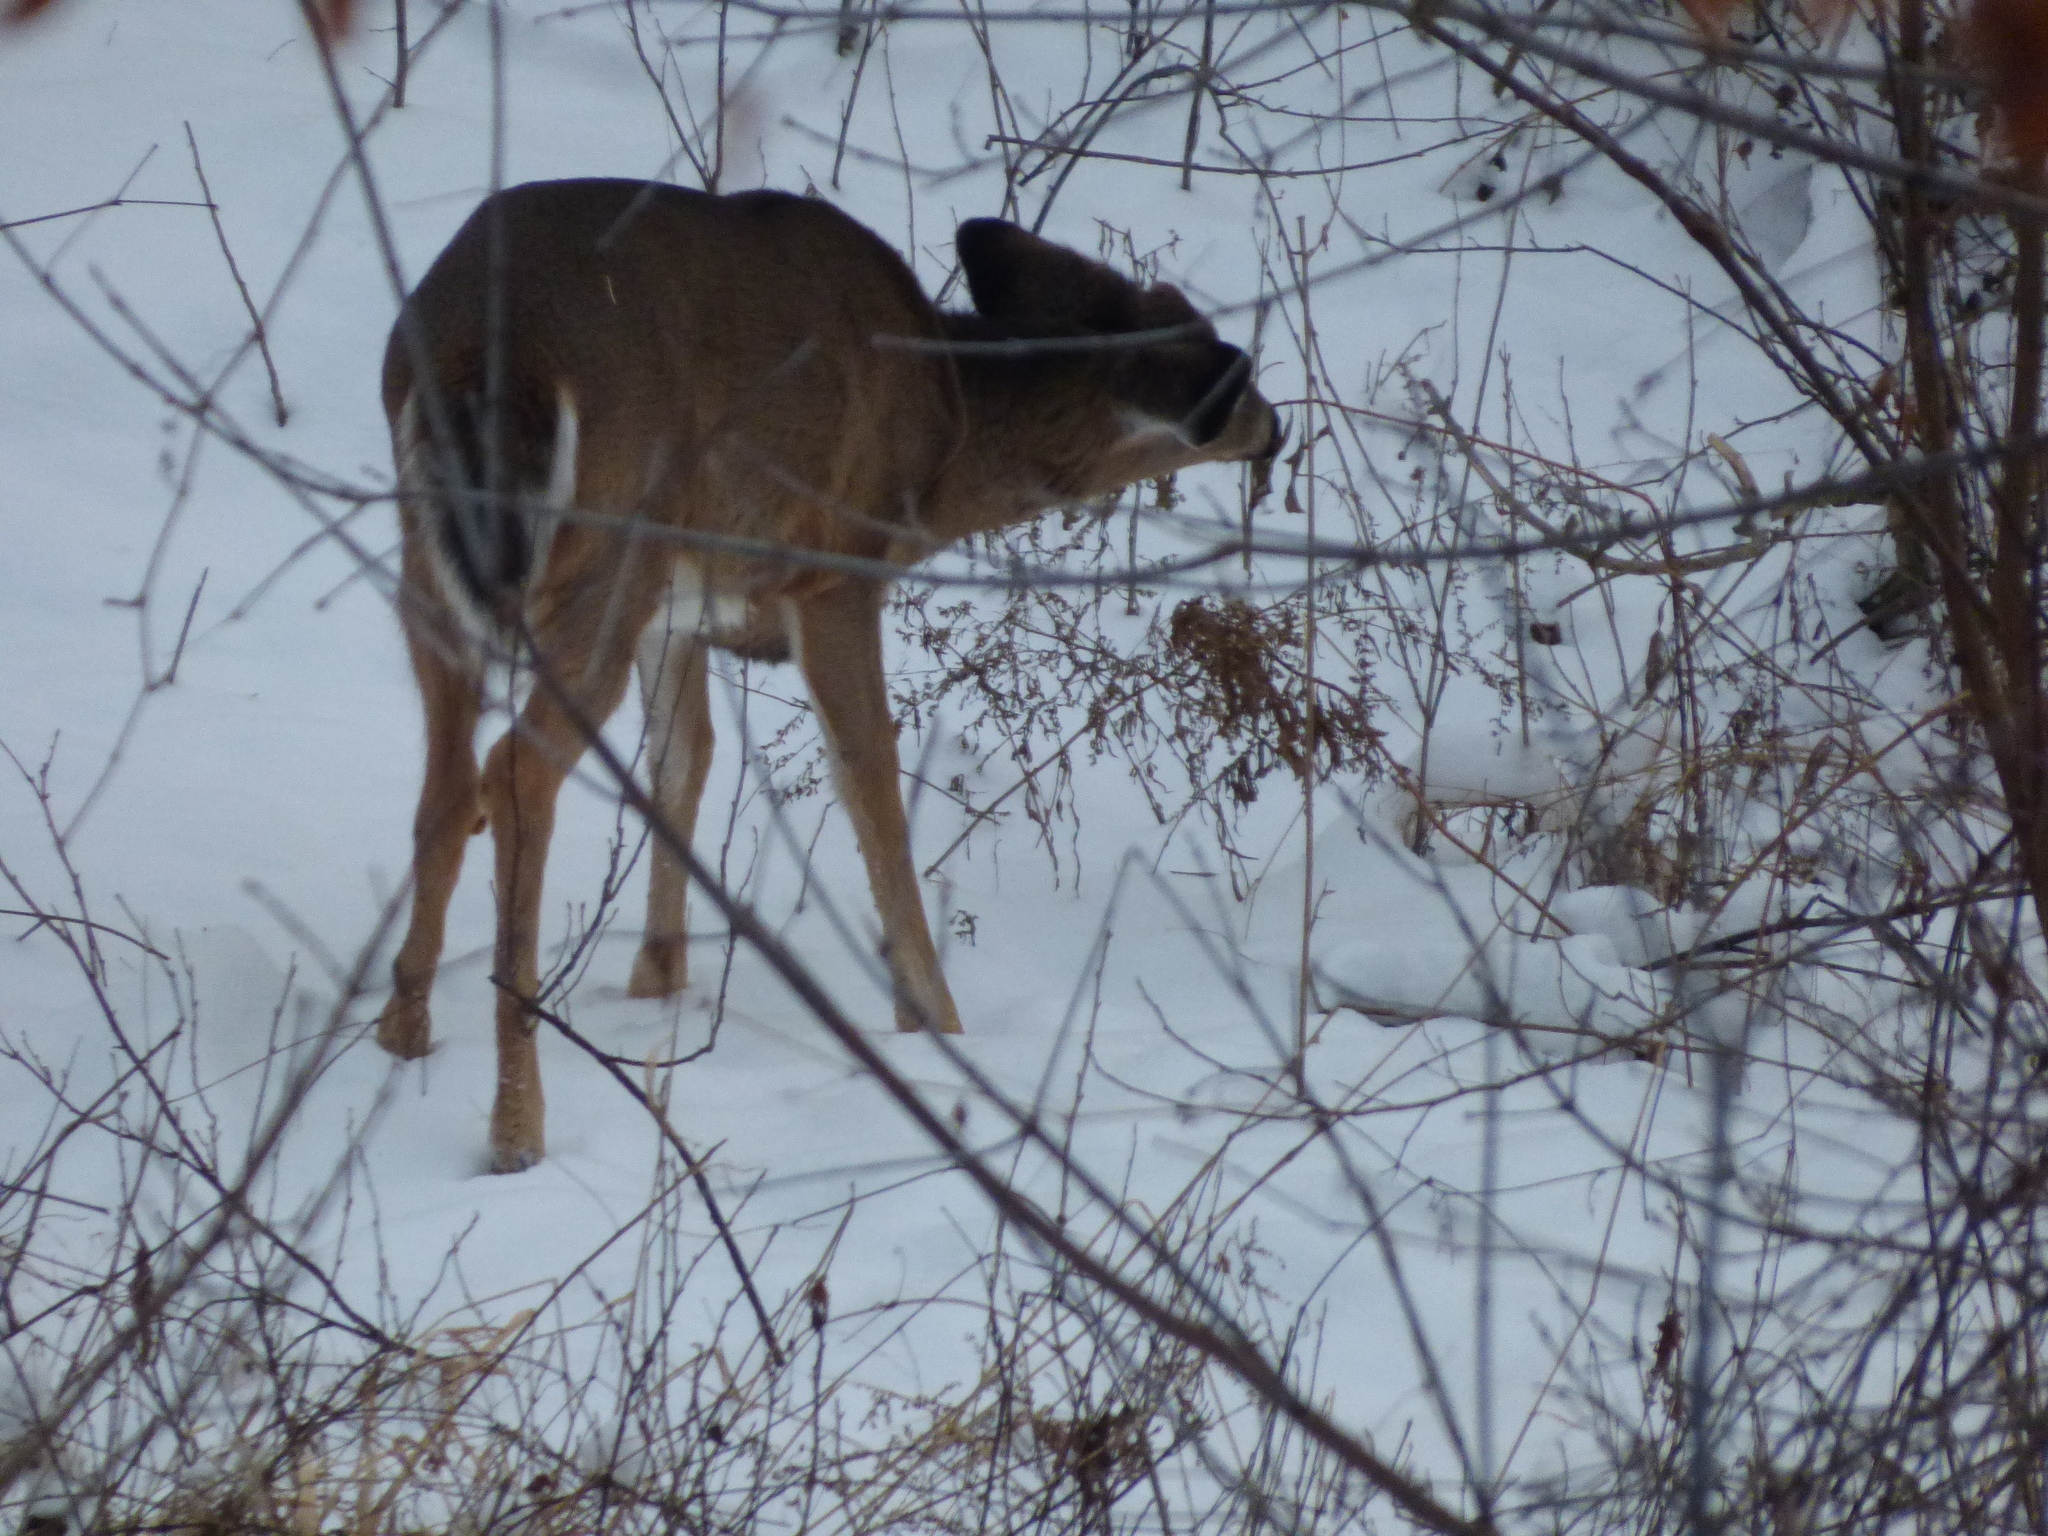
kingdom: Animalia
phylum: Chordata
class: Mammalia
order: Artiodactyla
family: Cervidae
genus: Odocoileus
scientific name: Odocoileus virginianus
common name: White-tailed deer
